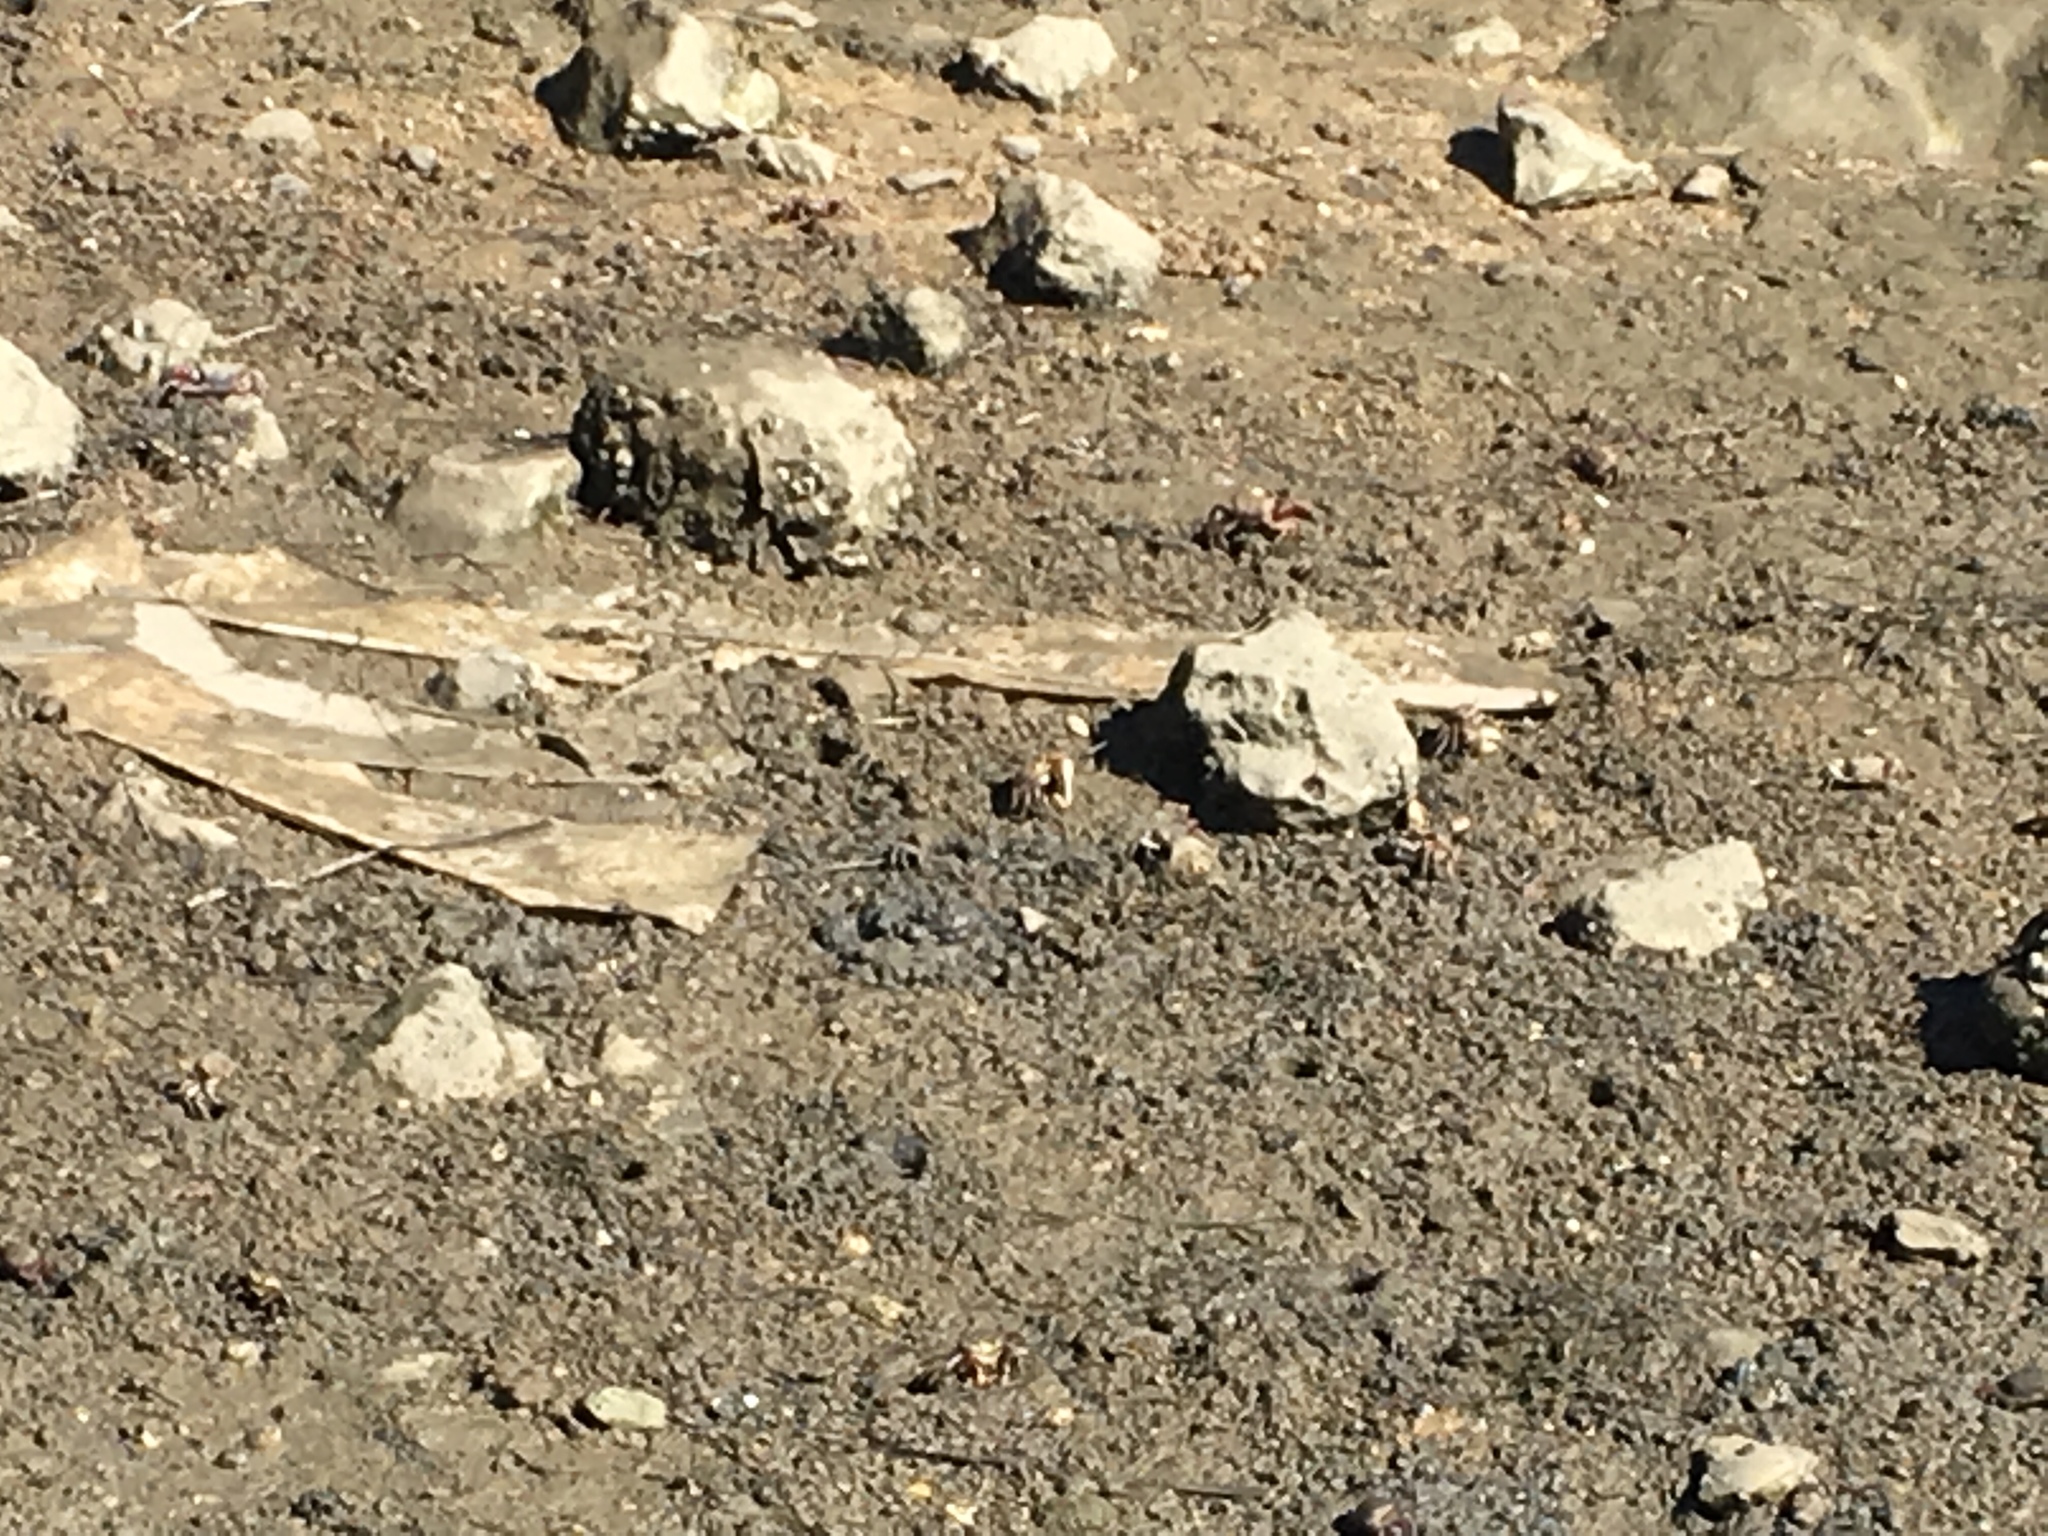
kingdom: Animalia
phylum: Arthropoda
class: Malacostraca
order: Decapoda
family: Ocypodidae
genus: Afruca
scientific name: Afruca tangeri
